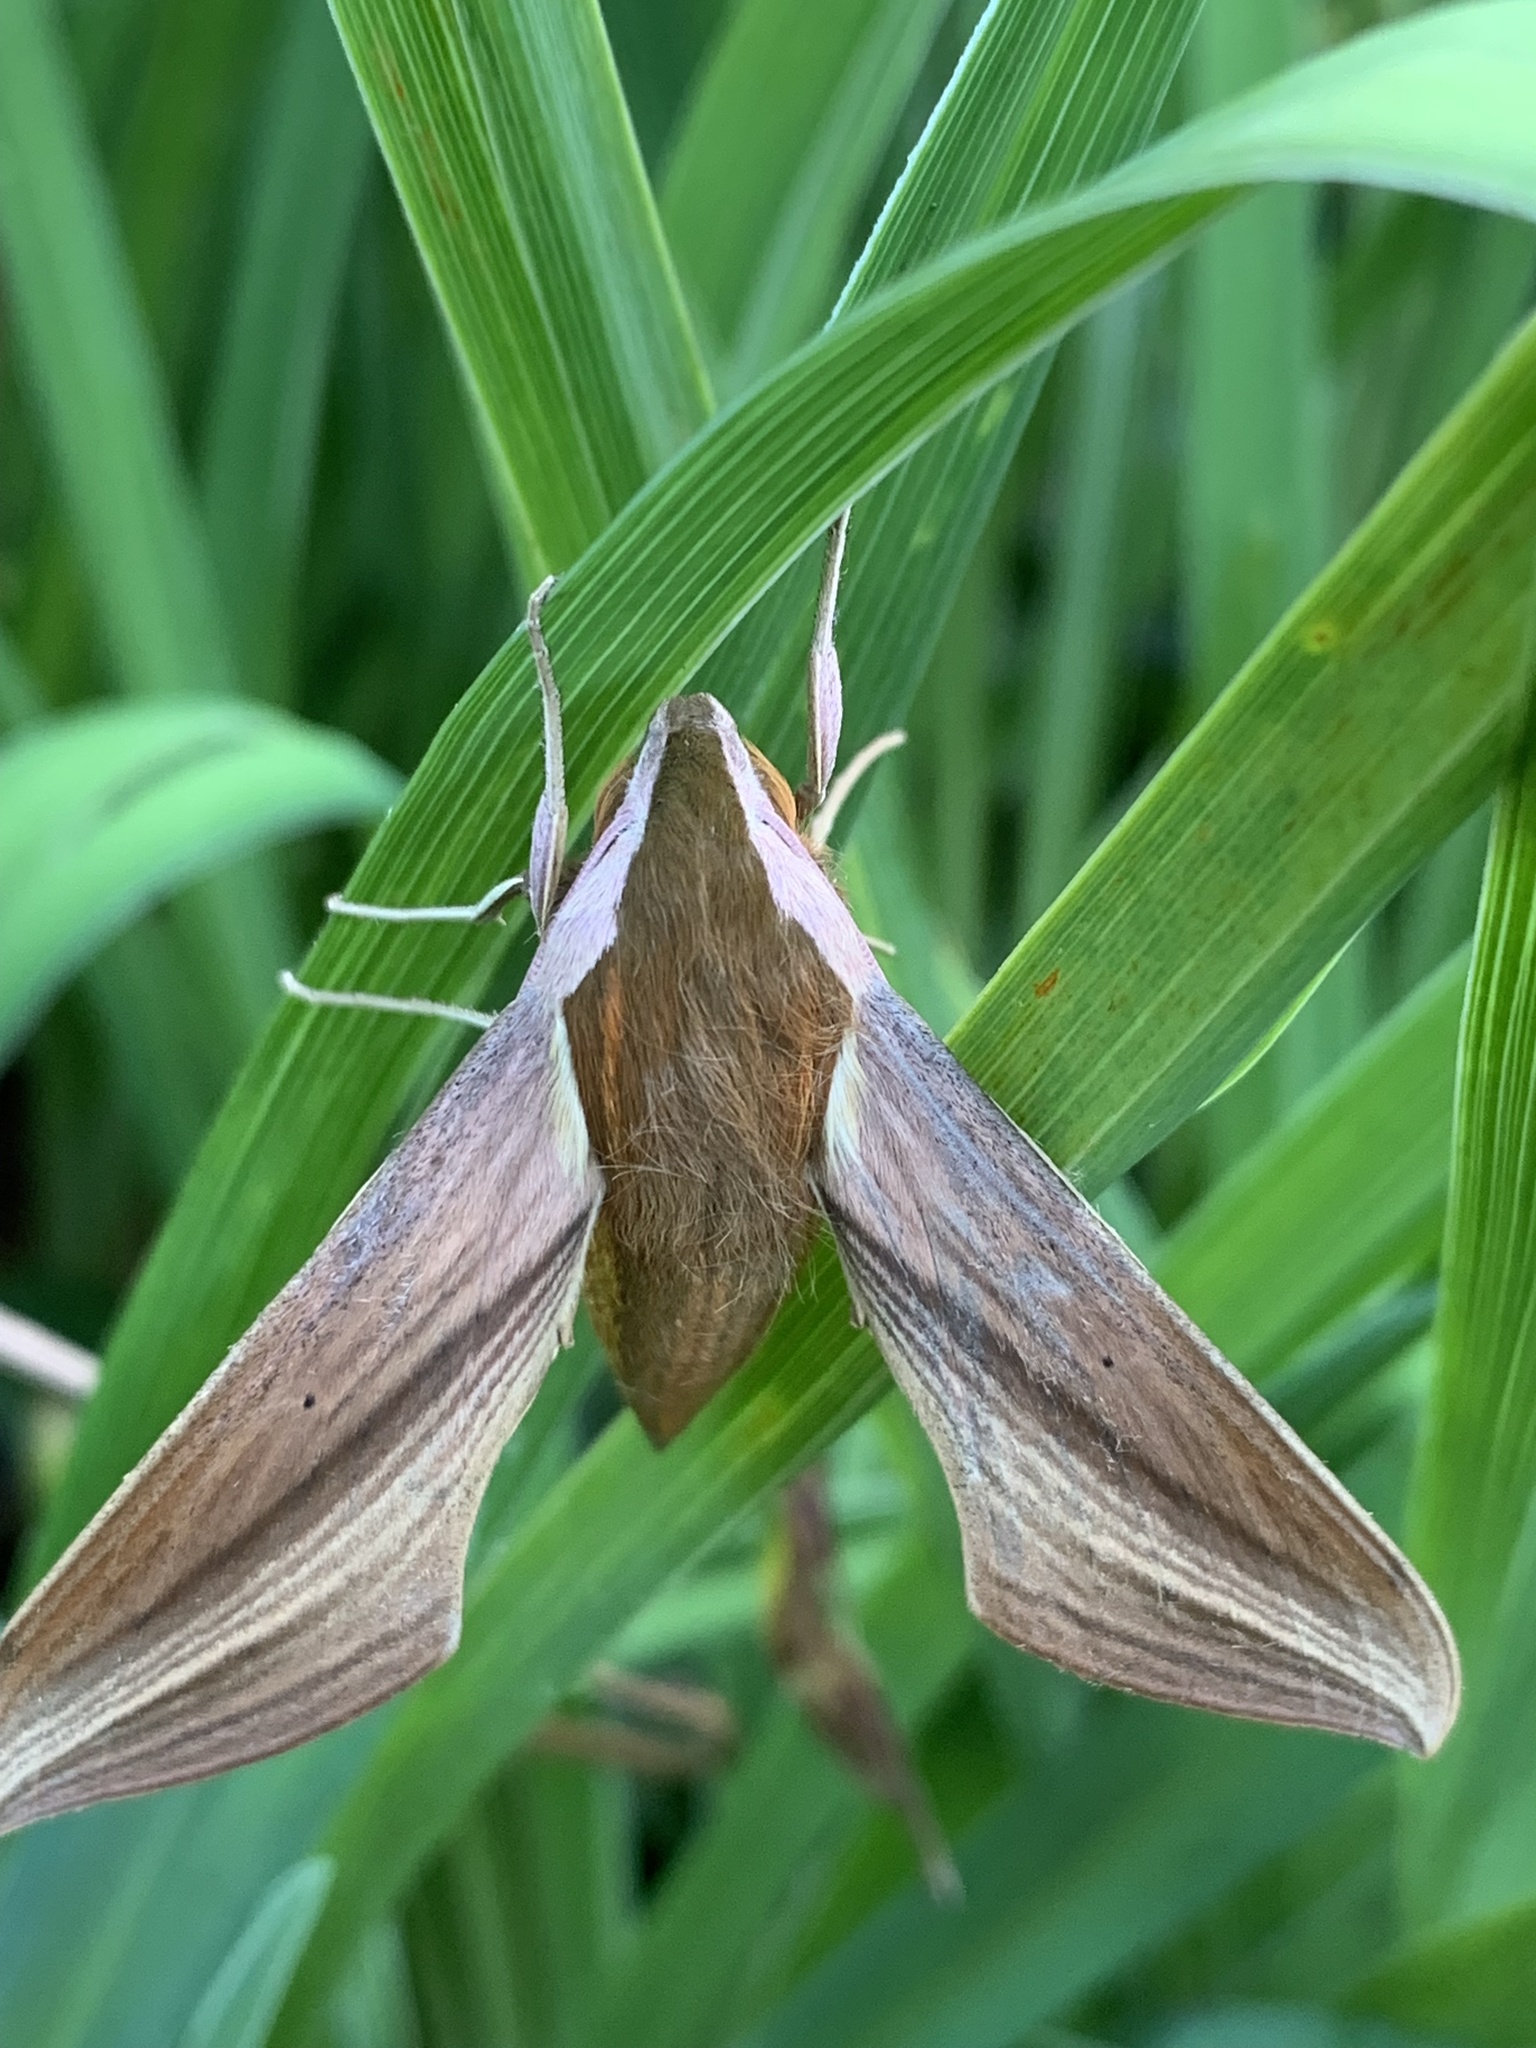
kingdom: Animalia
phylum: Arthropoda
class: Insecta
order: Lepidoptera
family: Sphingidae
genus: Xylophanes
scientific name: Xylophanes tersa
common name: Tersa sphinx
